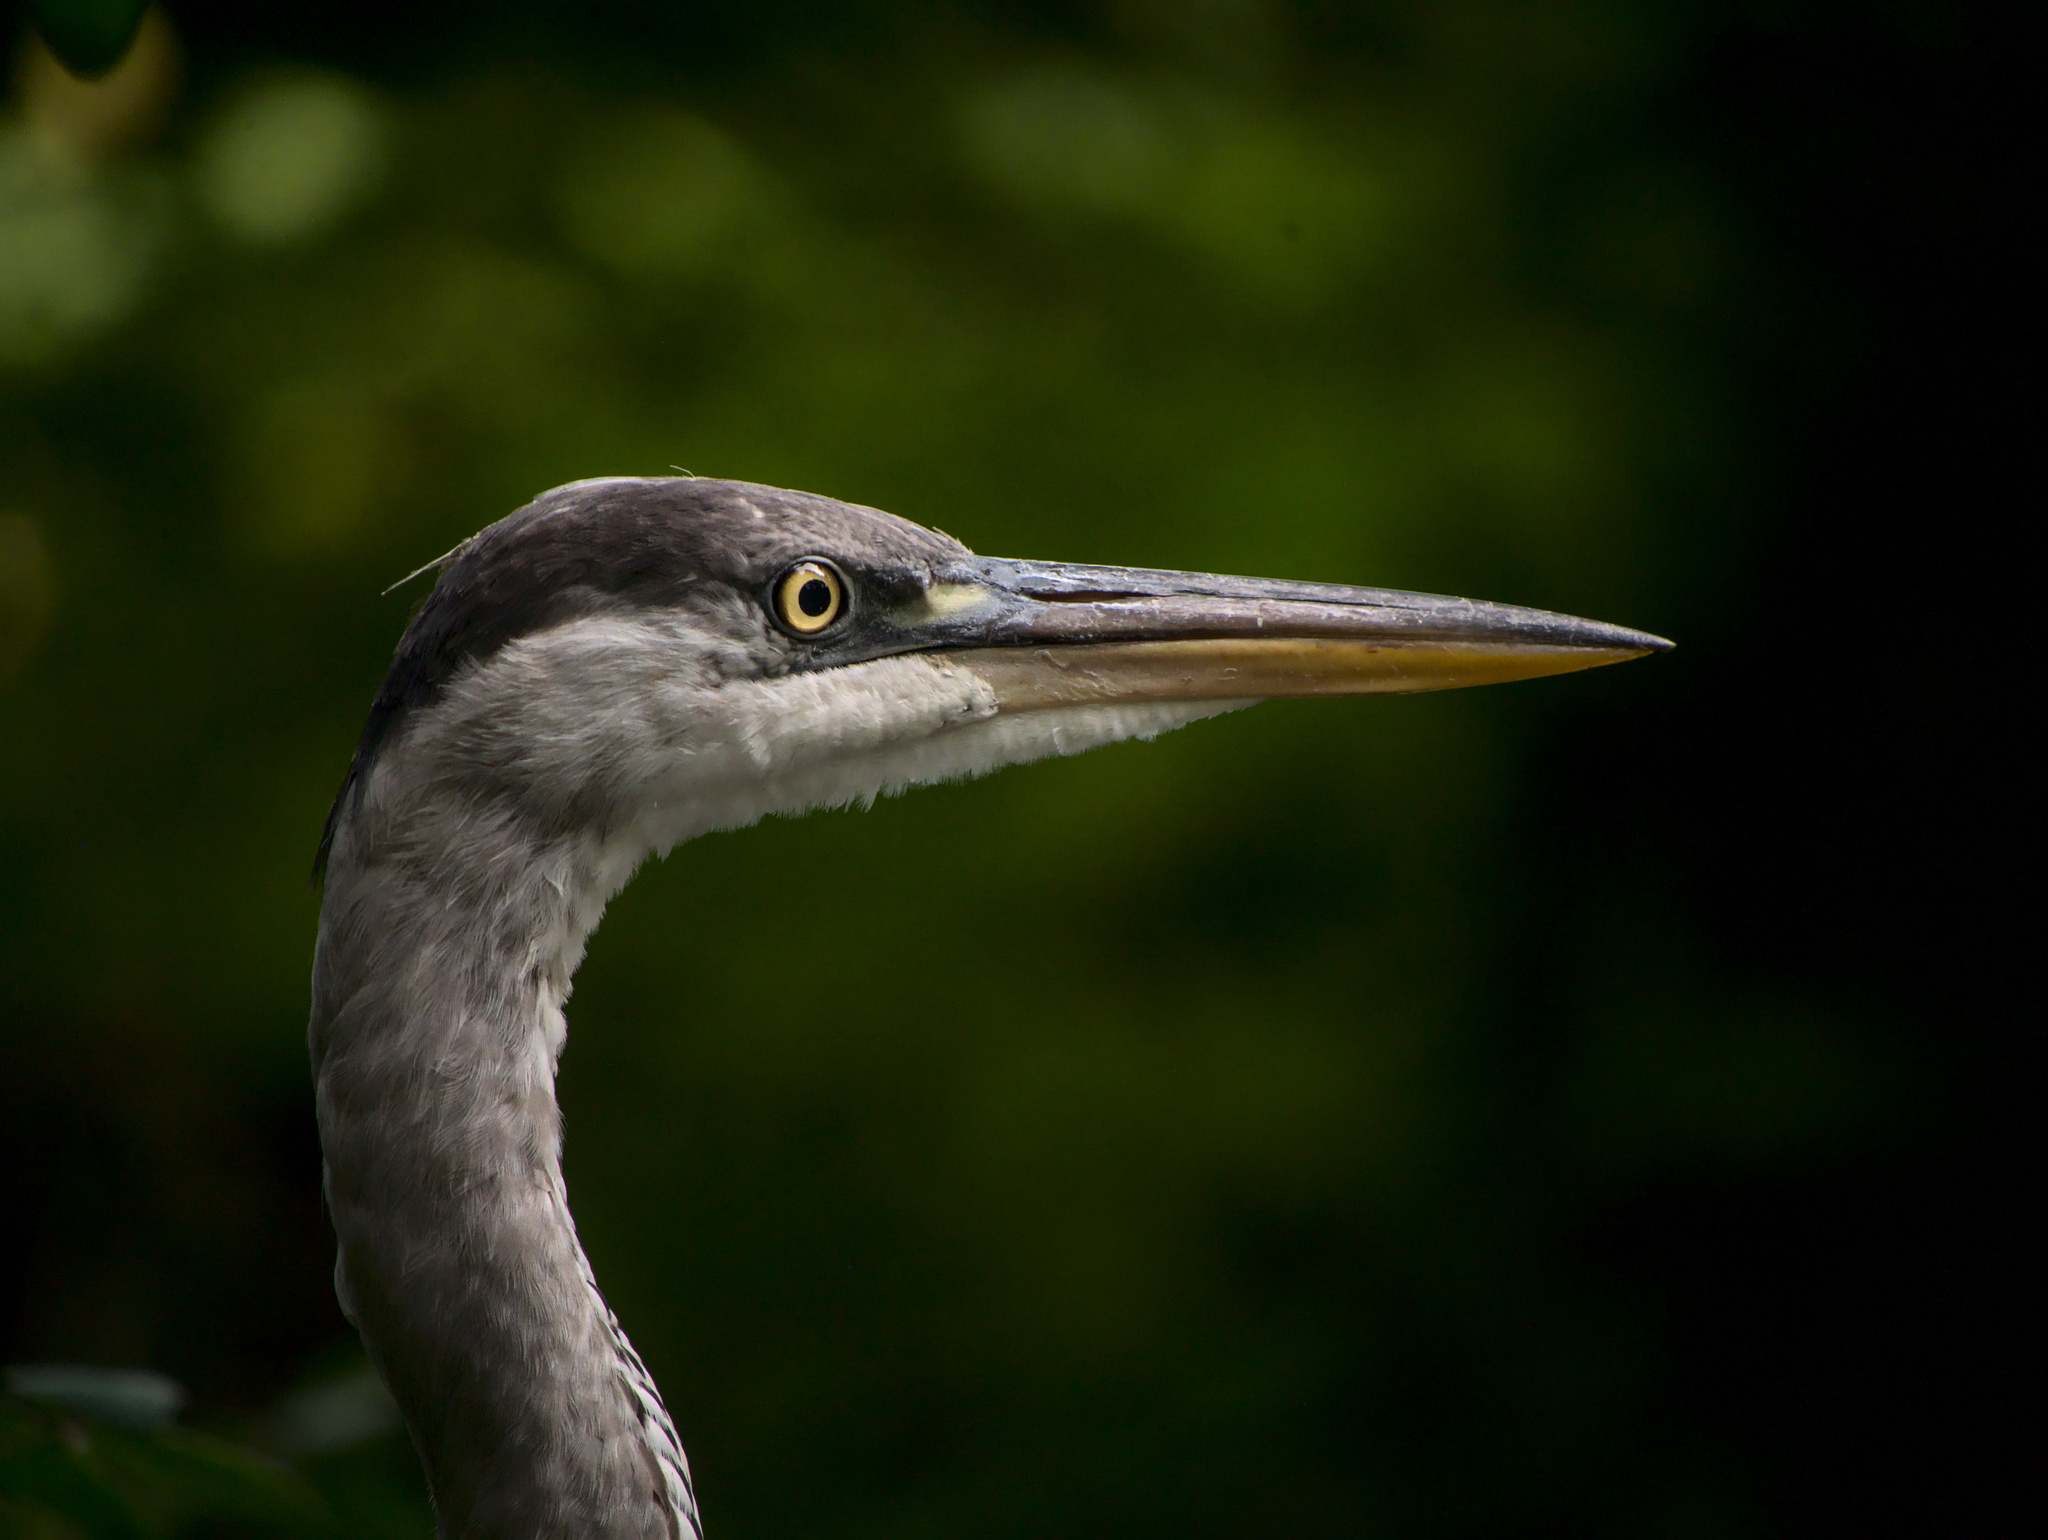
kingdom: Animalia
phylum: Chordata
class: Aves
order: Pelecaniformes
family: Ardeidae
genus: Ardea
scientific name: Ardea cinerea
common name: Grey heron
